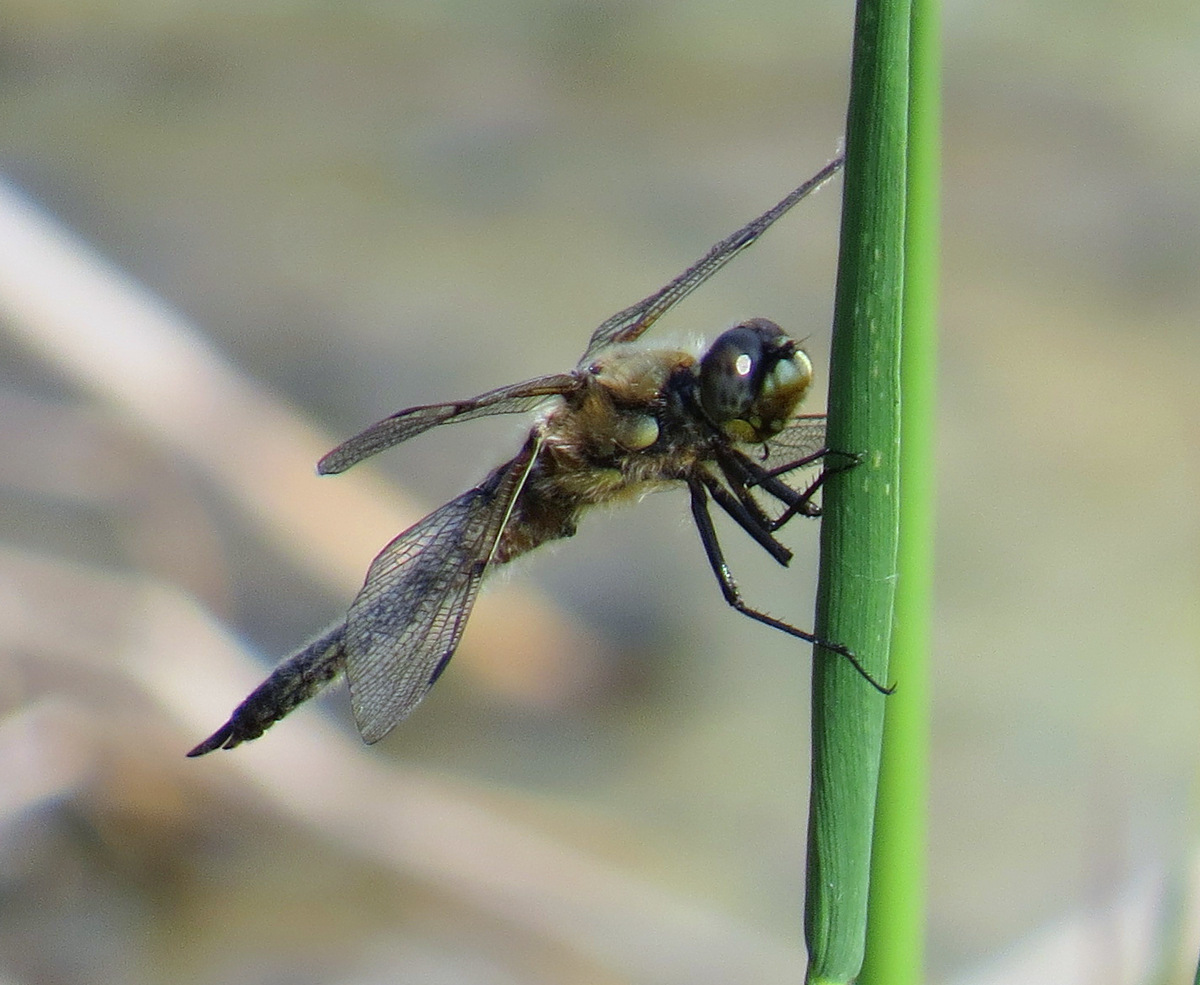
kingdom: Animalia
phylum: Arthropoda
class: Insecta
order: Odonata
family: Libellulidae
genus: Libellula
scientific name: Libellula quadrimaculata
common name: Four-spotted chaser
